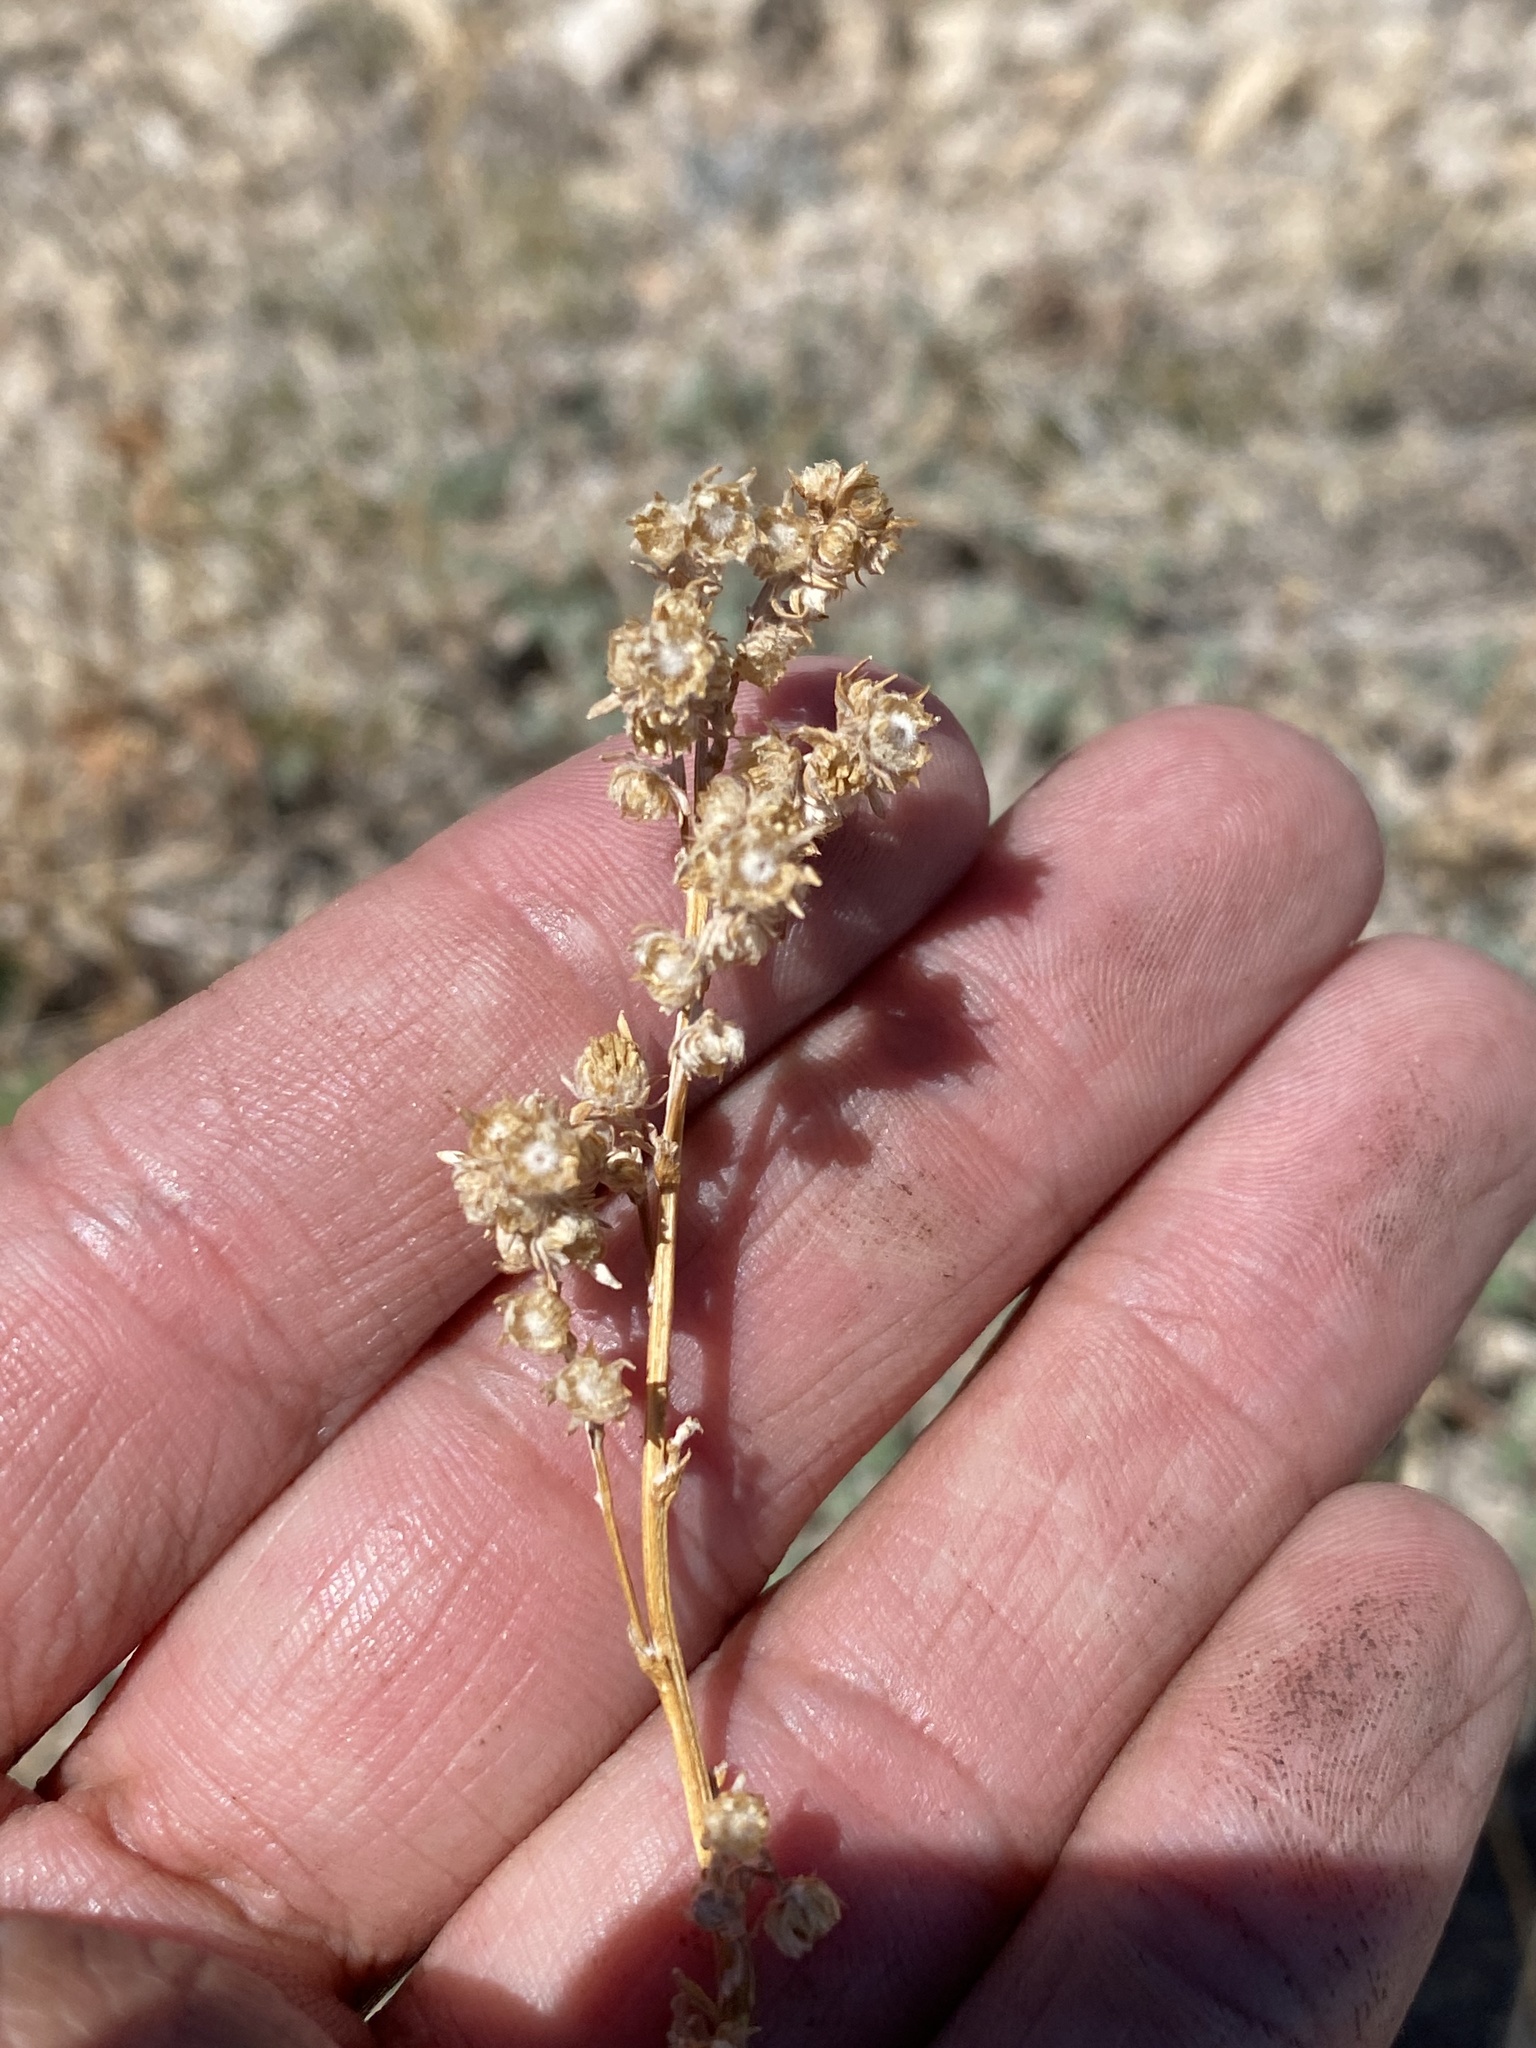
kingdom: Plantae
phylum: Tracheophyta
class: Magnoliopsida
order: Asterales
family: Asteraceae
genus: Artemisia
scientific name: Artemisia frigida
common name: Prairie sagewort
